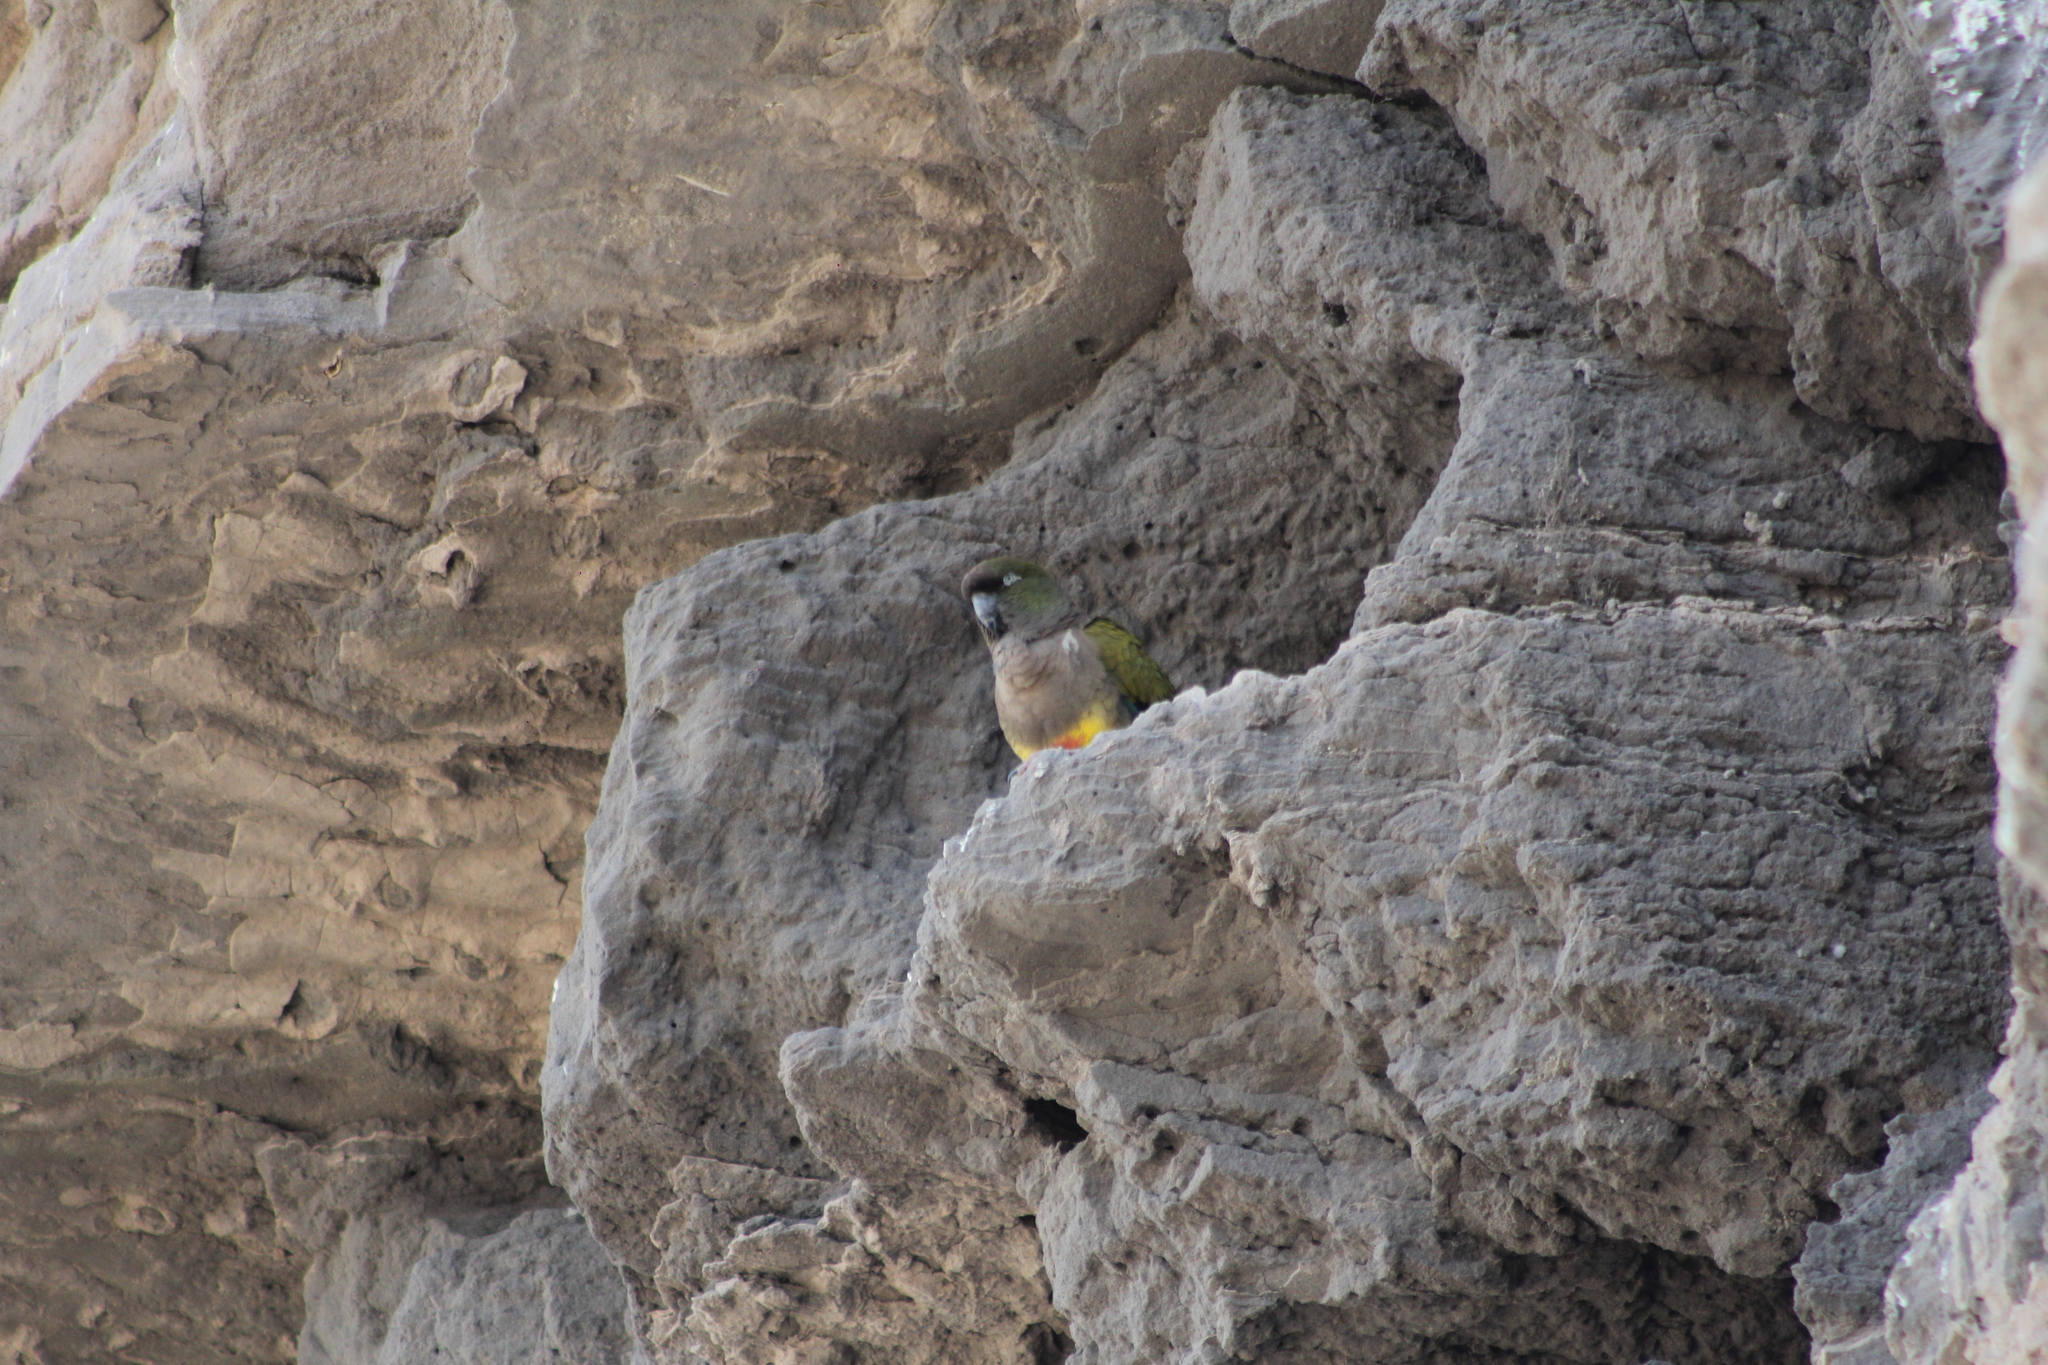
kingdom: Animalia
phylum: Chordata
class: Aves
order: Psittaciformes
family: Psittacidae
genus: Cyanoliseus
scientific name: Cyanoliseus patagonus
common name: Burrowing parrot
